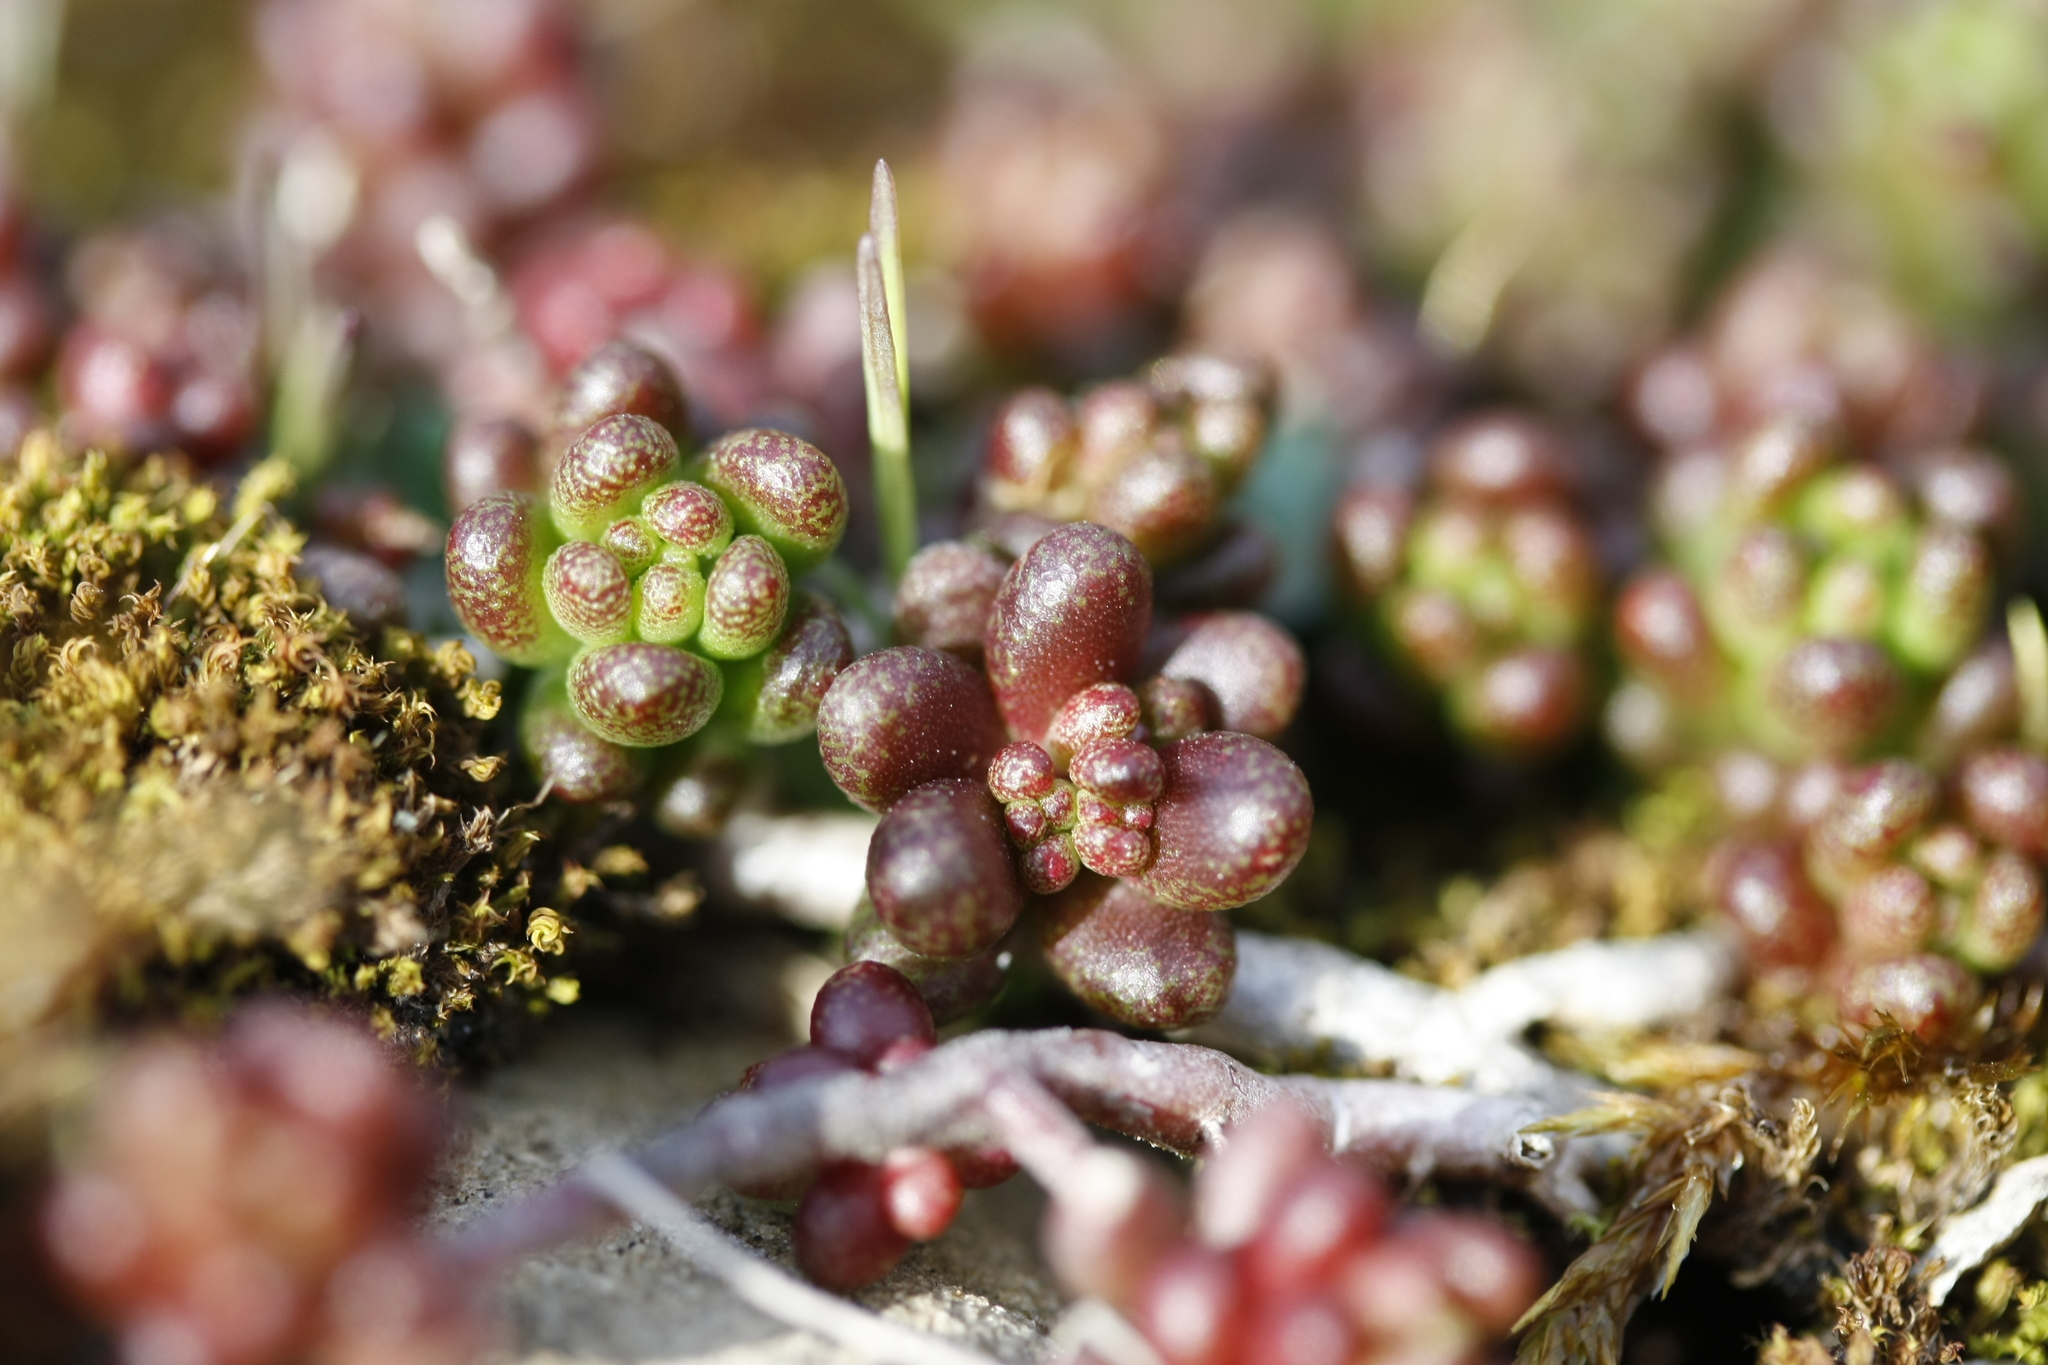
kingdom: Plantae
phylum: Tracheophyta
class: Magnoliopsida
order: Saxifragales
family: Crassulaceae
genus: Sedum
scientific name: Sedum album
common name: White stonecrop
